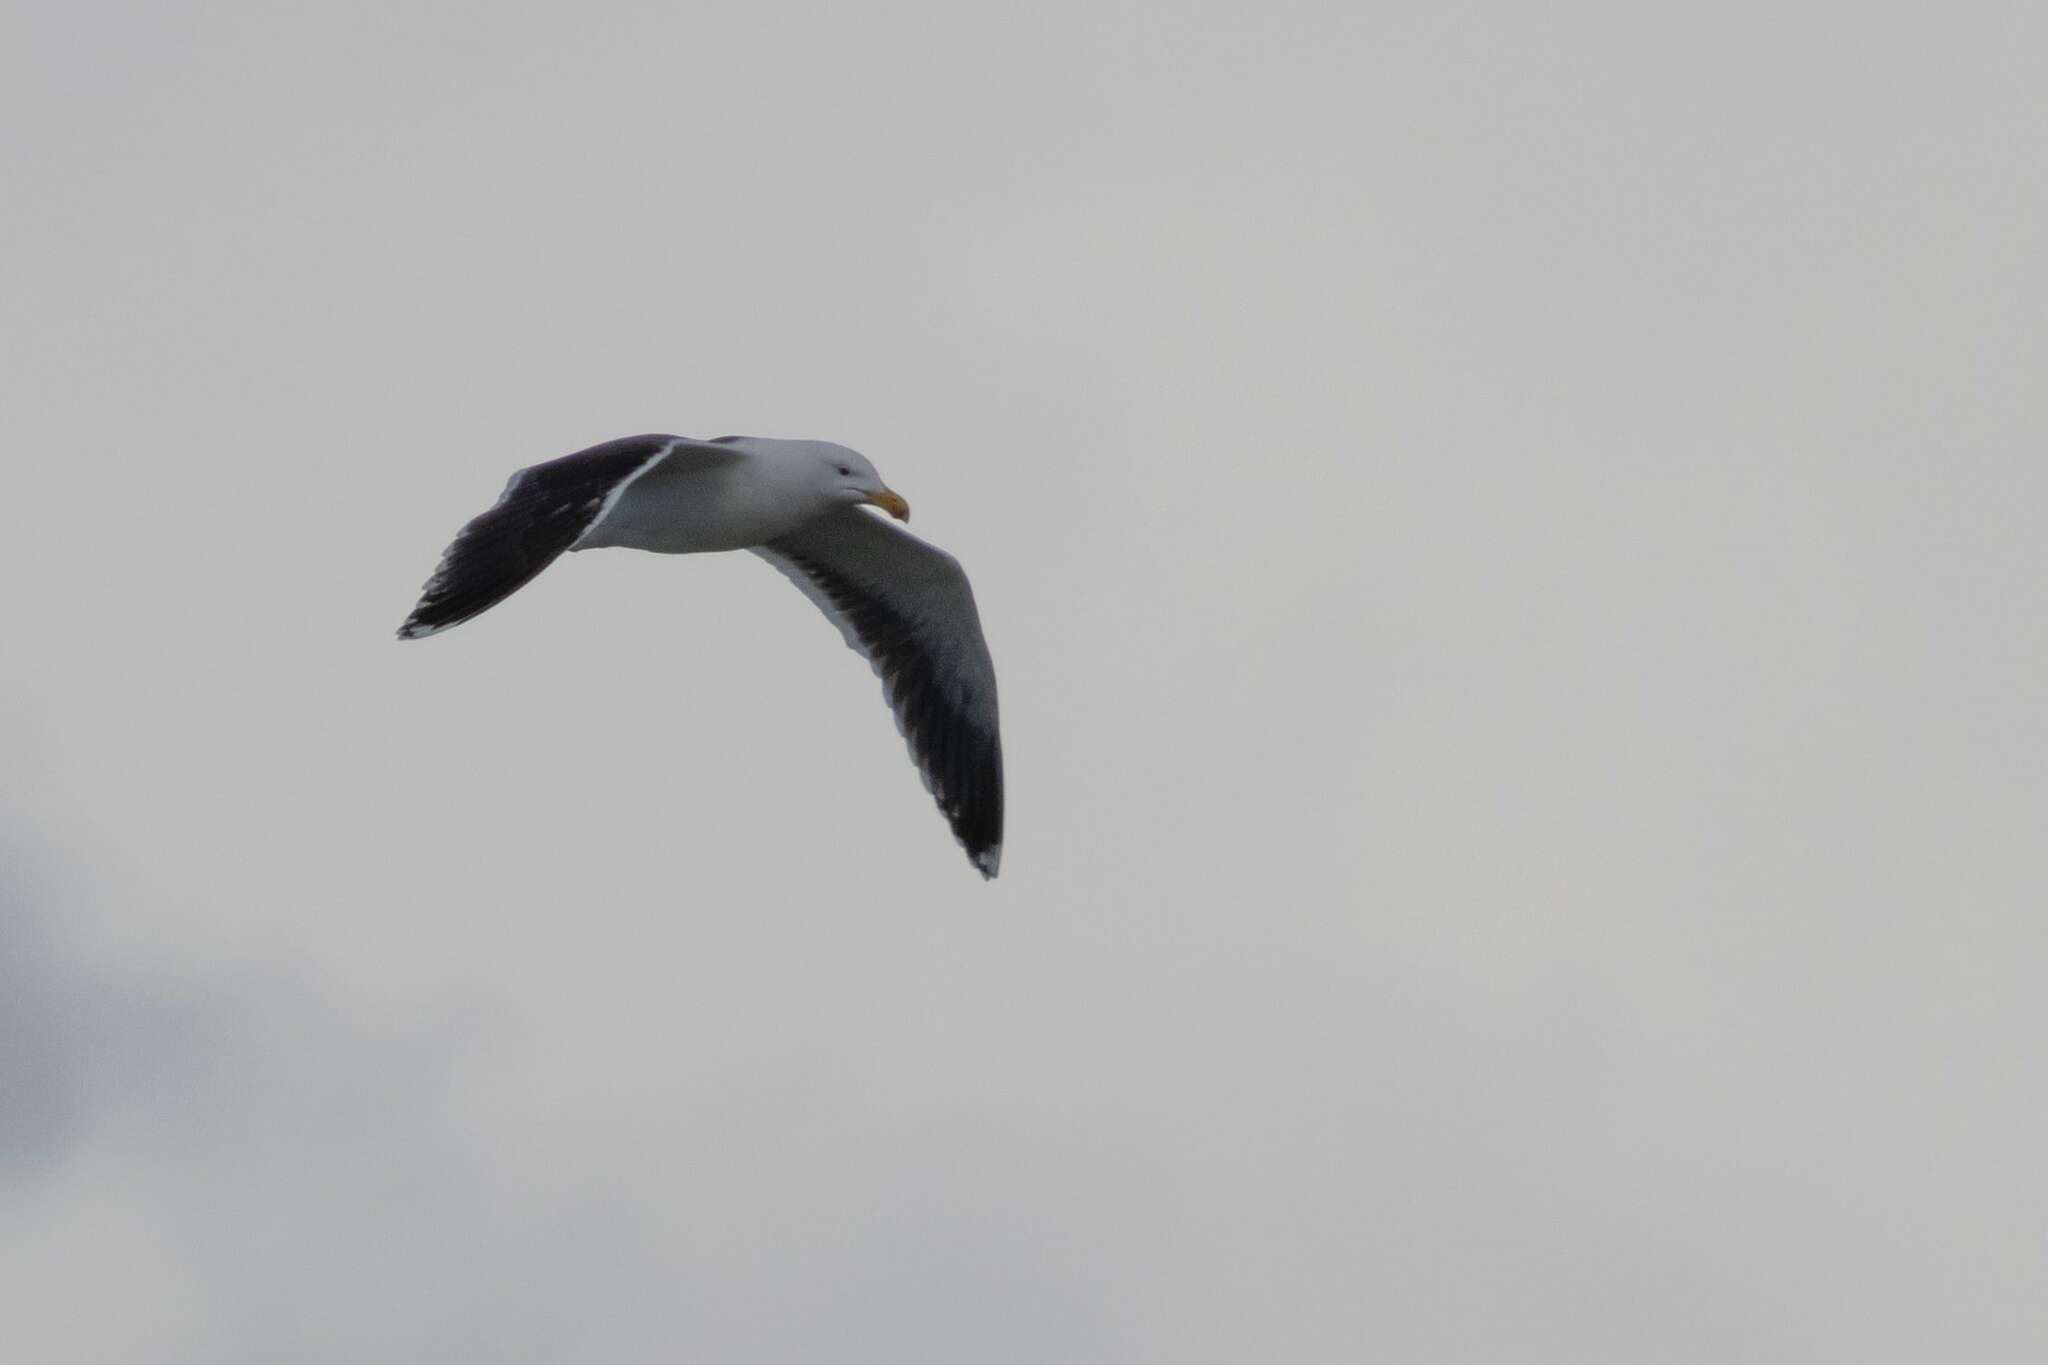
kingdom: Animalia
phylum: Chordata
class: Aves
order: Charadriiformes
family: Laridae
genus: Larus
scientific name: Larus marinus
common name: Great black-backed gull
